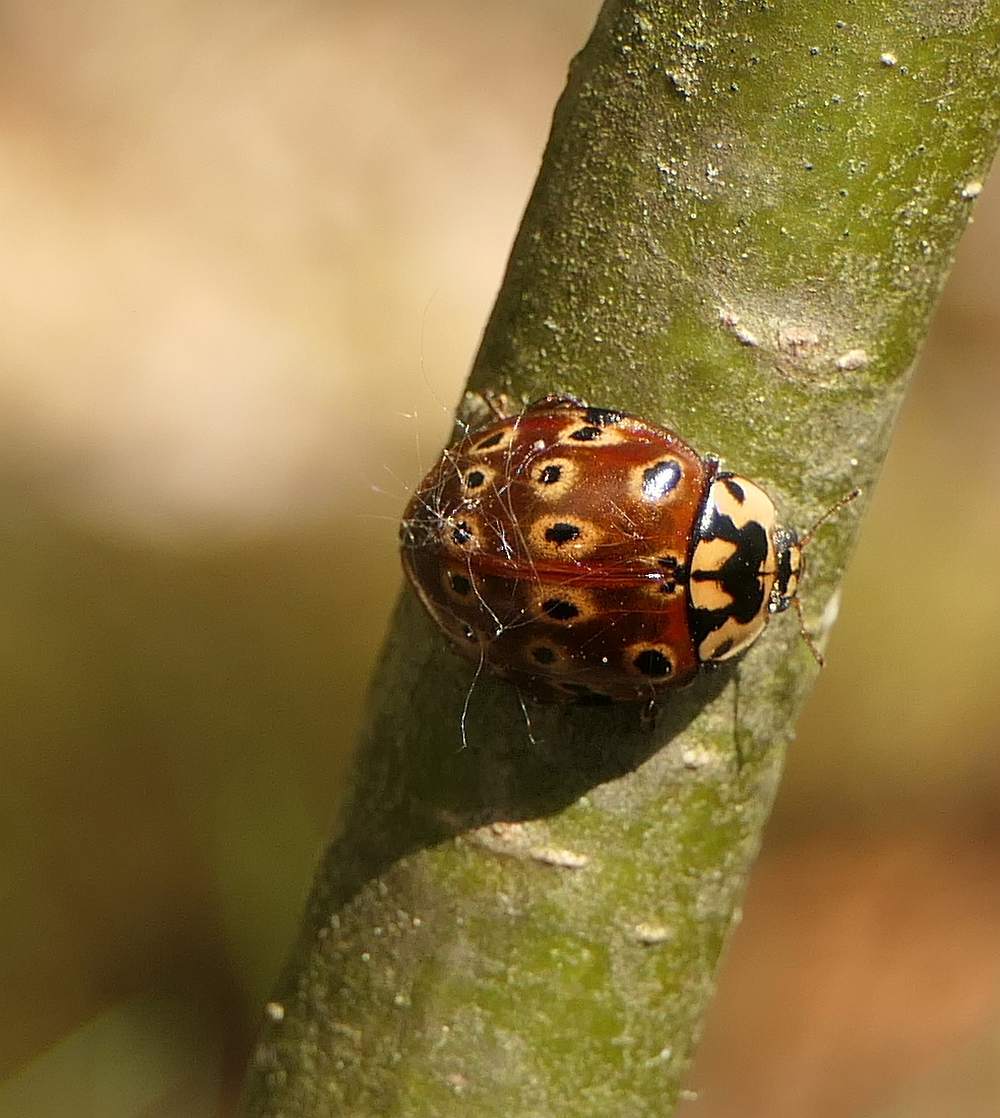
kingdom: Animalia
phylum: Arthropoda
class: Insecta
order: Coleoptera
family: Coccinellidae
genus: Anatis
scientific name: Anatis mali
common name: Eye-spotted lady beetle
